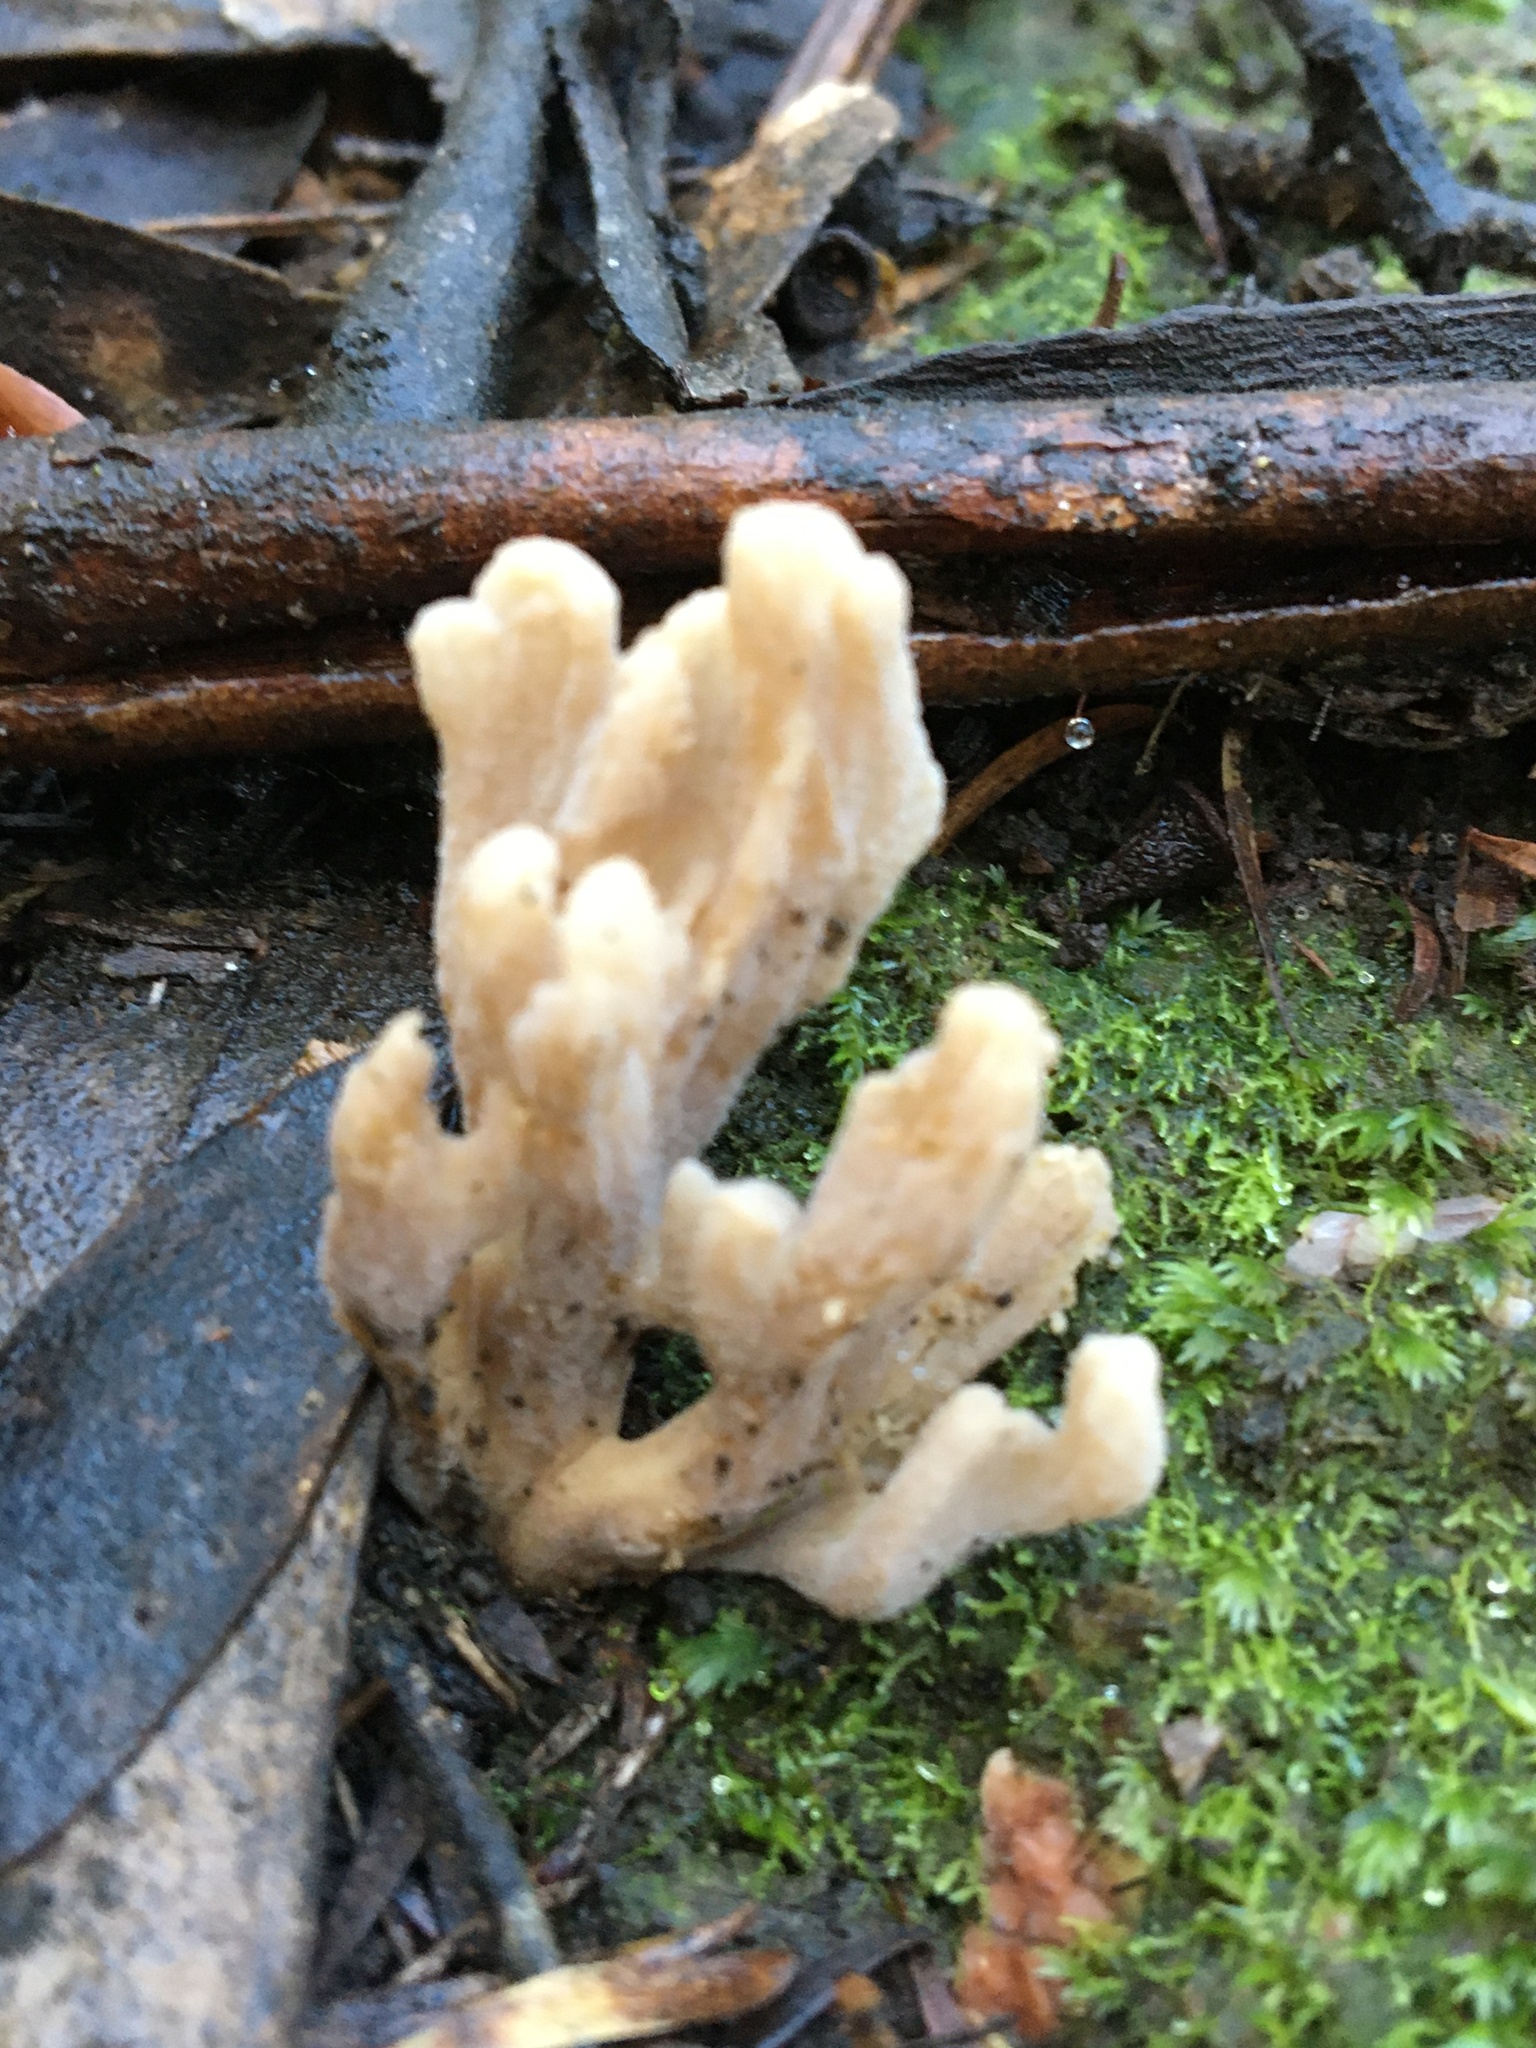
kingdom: Fungi
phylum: Basidiomycota
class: Agaricomycetes
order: Cantharellales
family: Hydnaceae
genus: Clavulina
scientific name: Clavulina subrugosa
